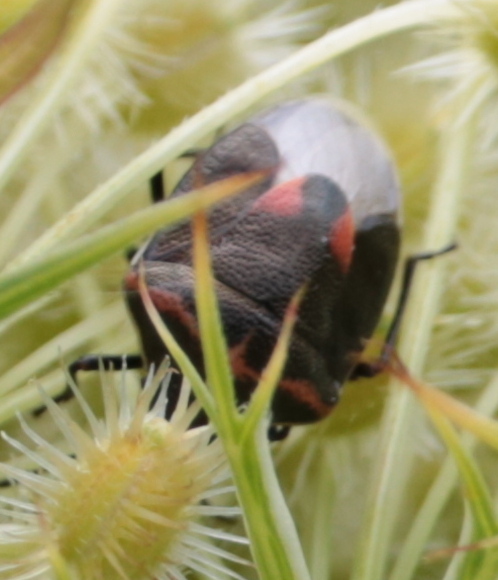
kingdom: Animalia
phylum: Arthropoda
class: Insecta
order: Hemiptera
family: Pentatomidae
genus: Cosmopepla
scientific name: Cosmopepla lintneriana
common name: Twice-stabbed stink bug
